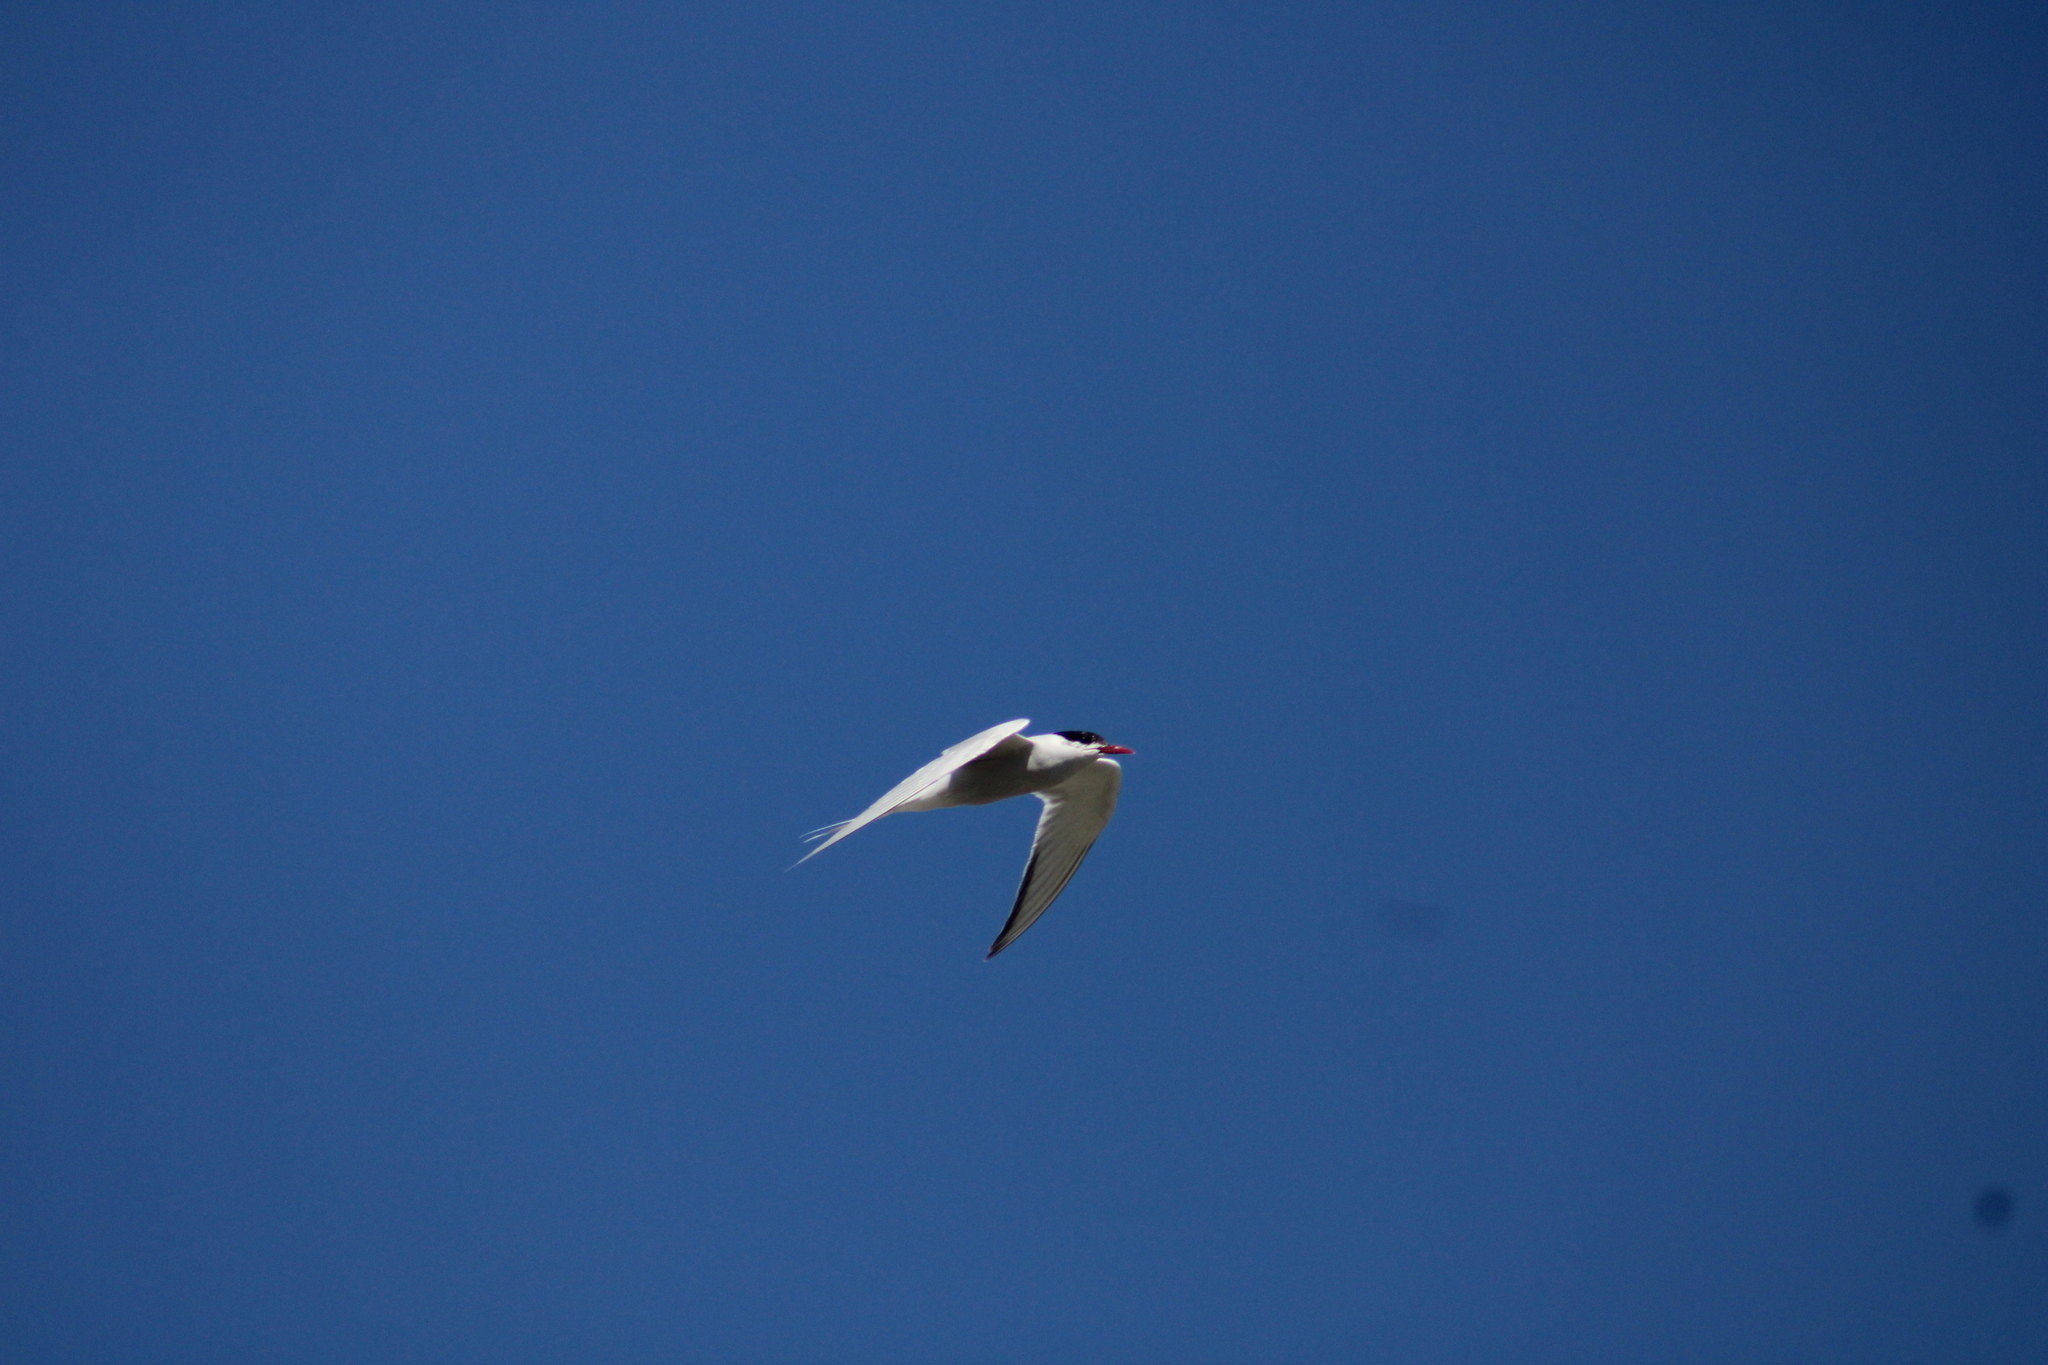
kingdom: Animalia
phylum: Chordata
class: Aves
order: Charadriiformes
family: Laridae
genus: Sterna
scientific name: Sterna hirundinacea
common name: South american tern
